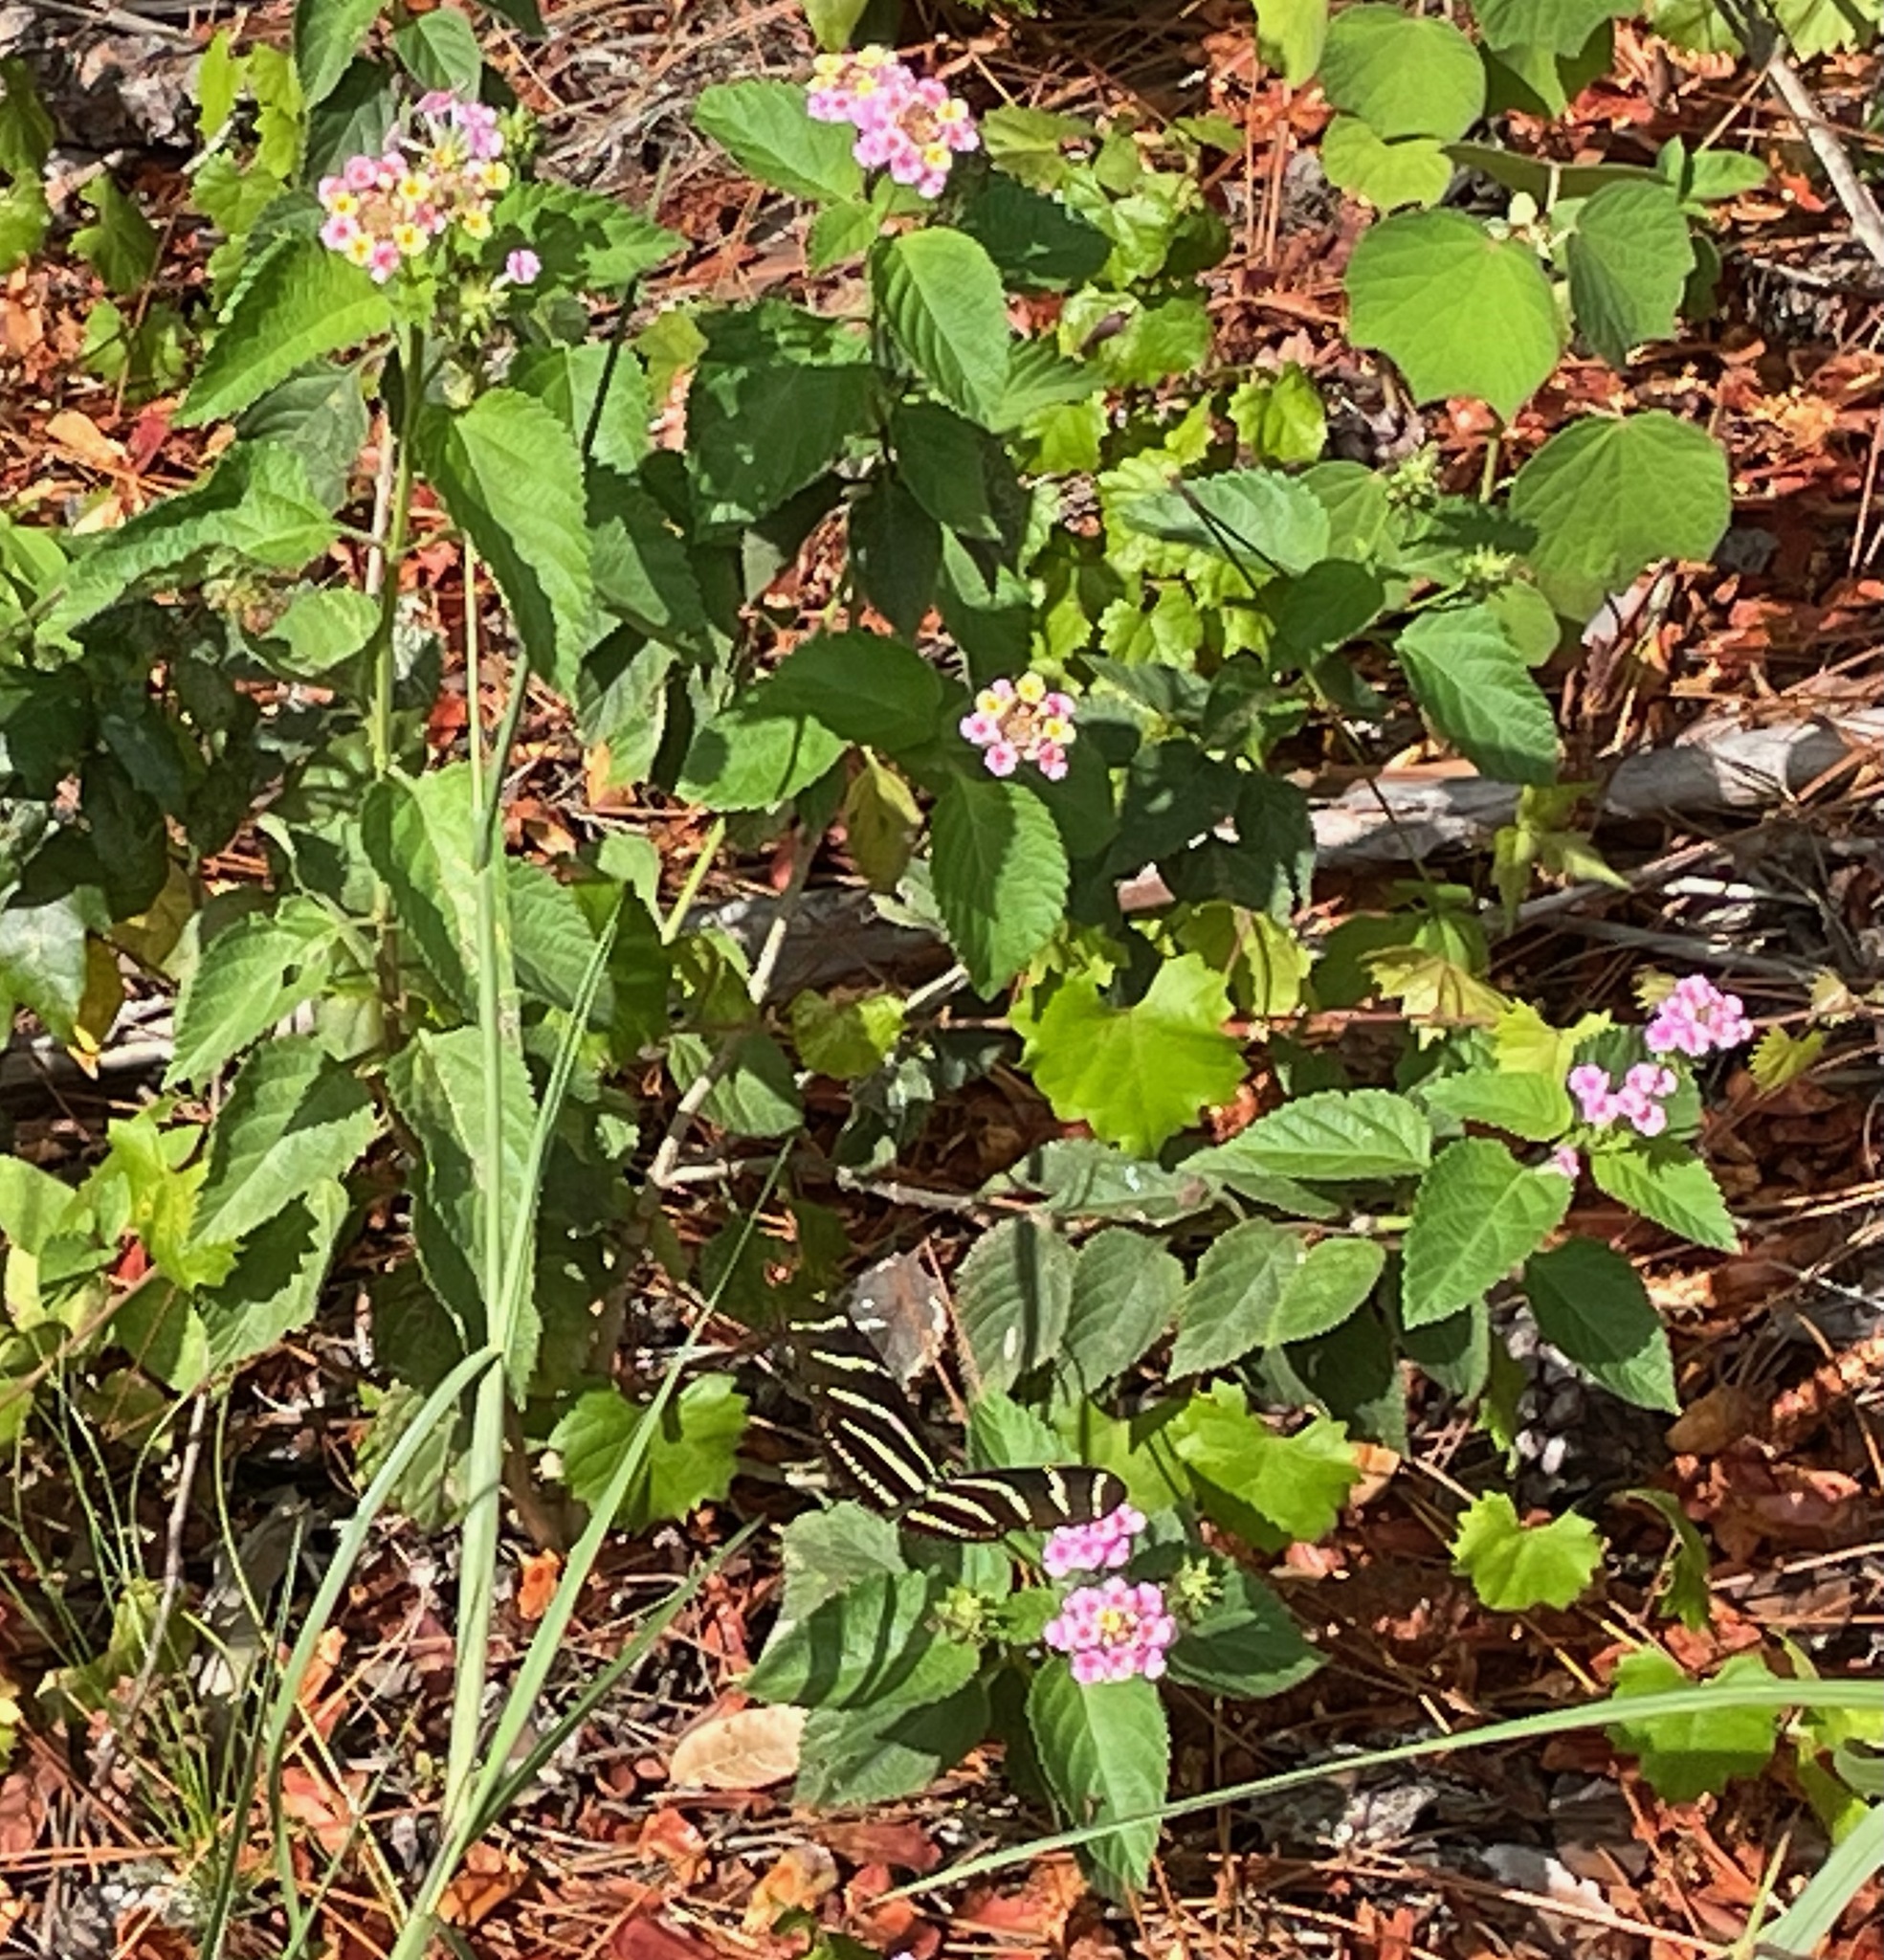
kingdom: Plantae
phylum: Tracheophyta
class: Magnoliopsida
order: Lamiales
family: Verbenaceae
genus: Lantana
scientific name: Lantana strigocamara
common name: Lantana
